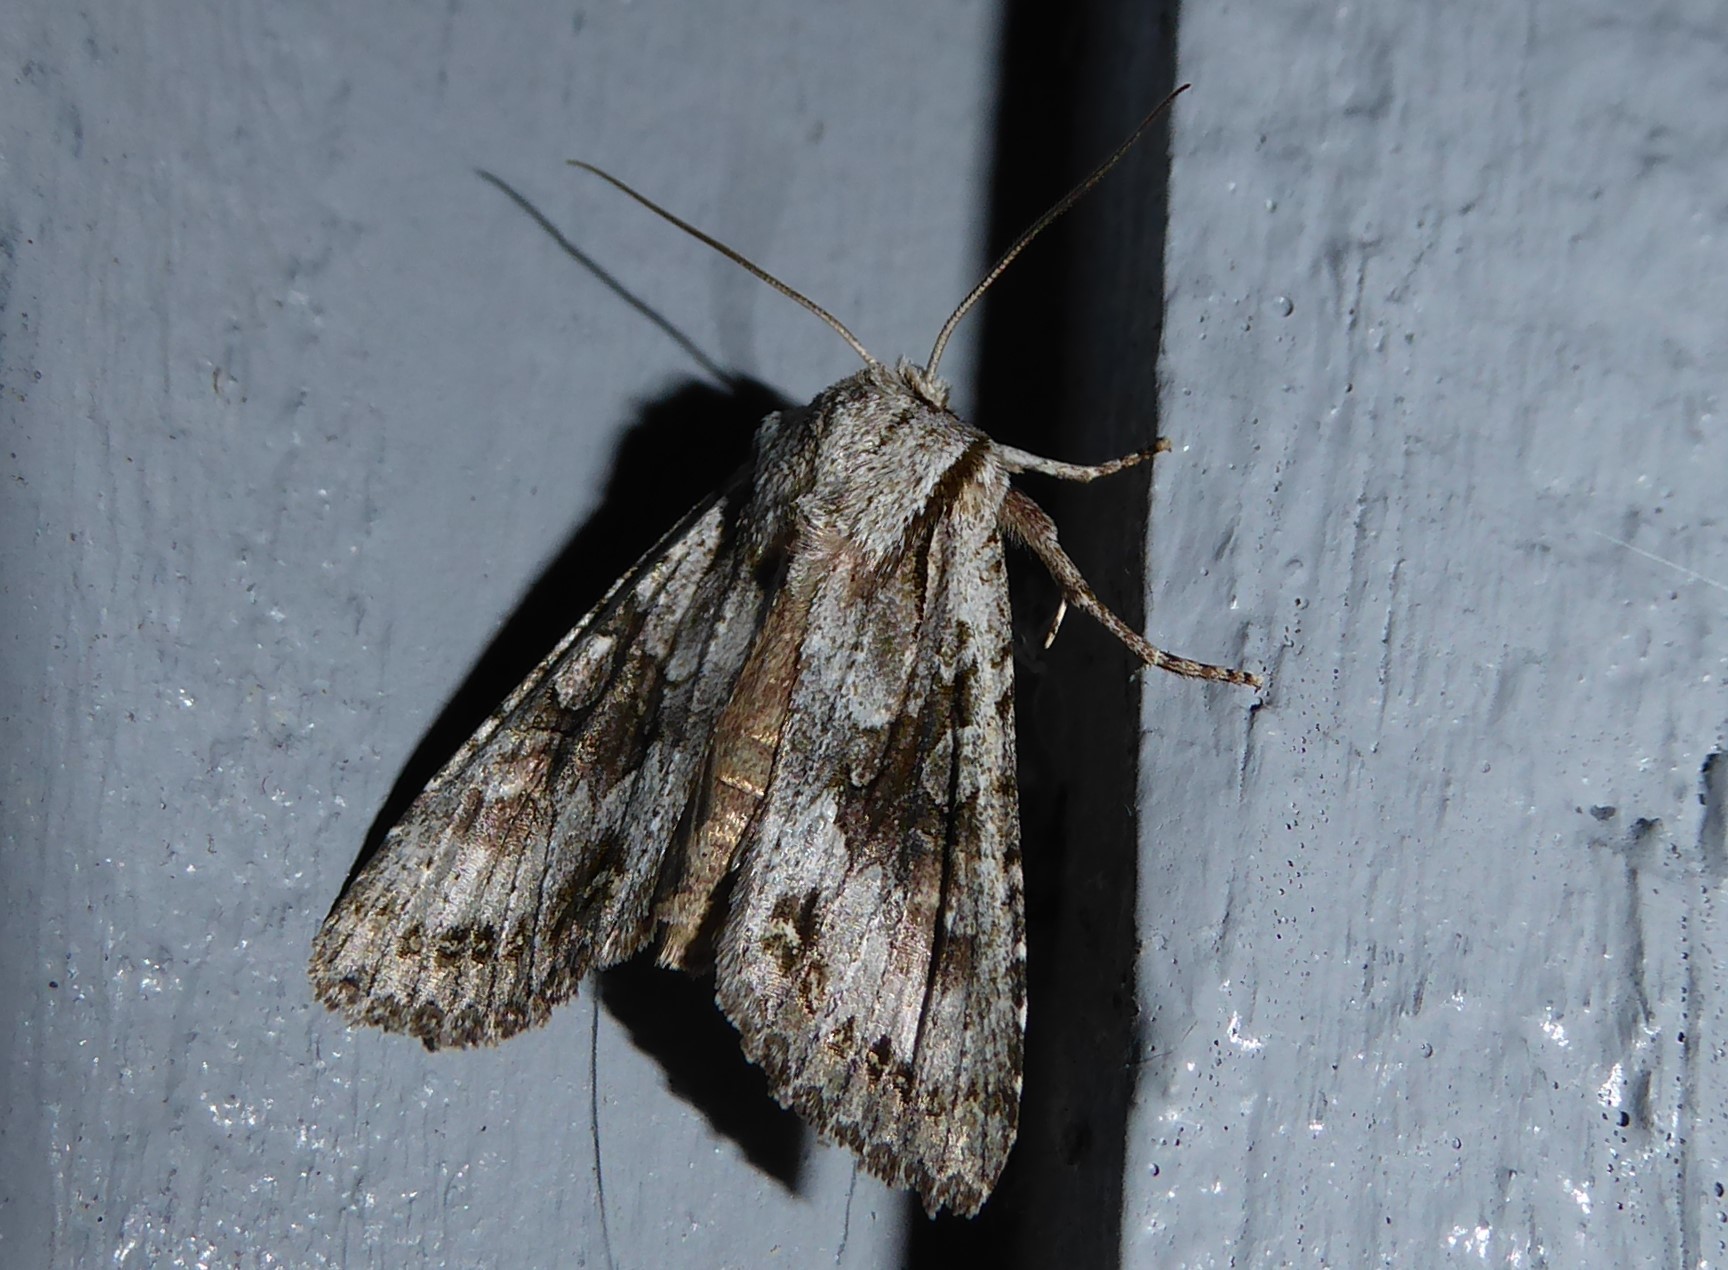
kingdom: Animalia
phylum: Arthropoda
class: Insecta
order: Lepidoptera
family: Noctuidae
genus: Ichneutica
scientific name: Ichneutica mutans
